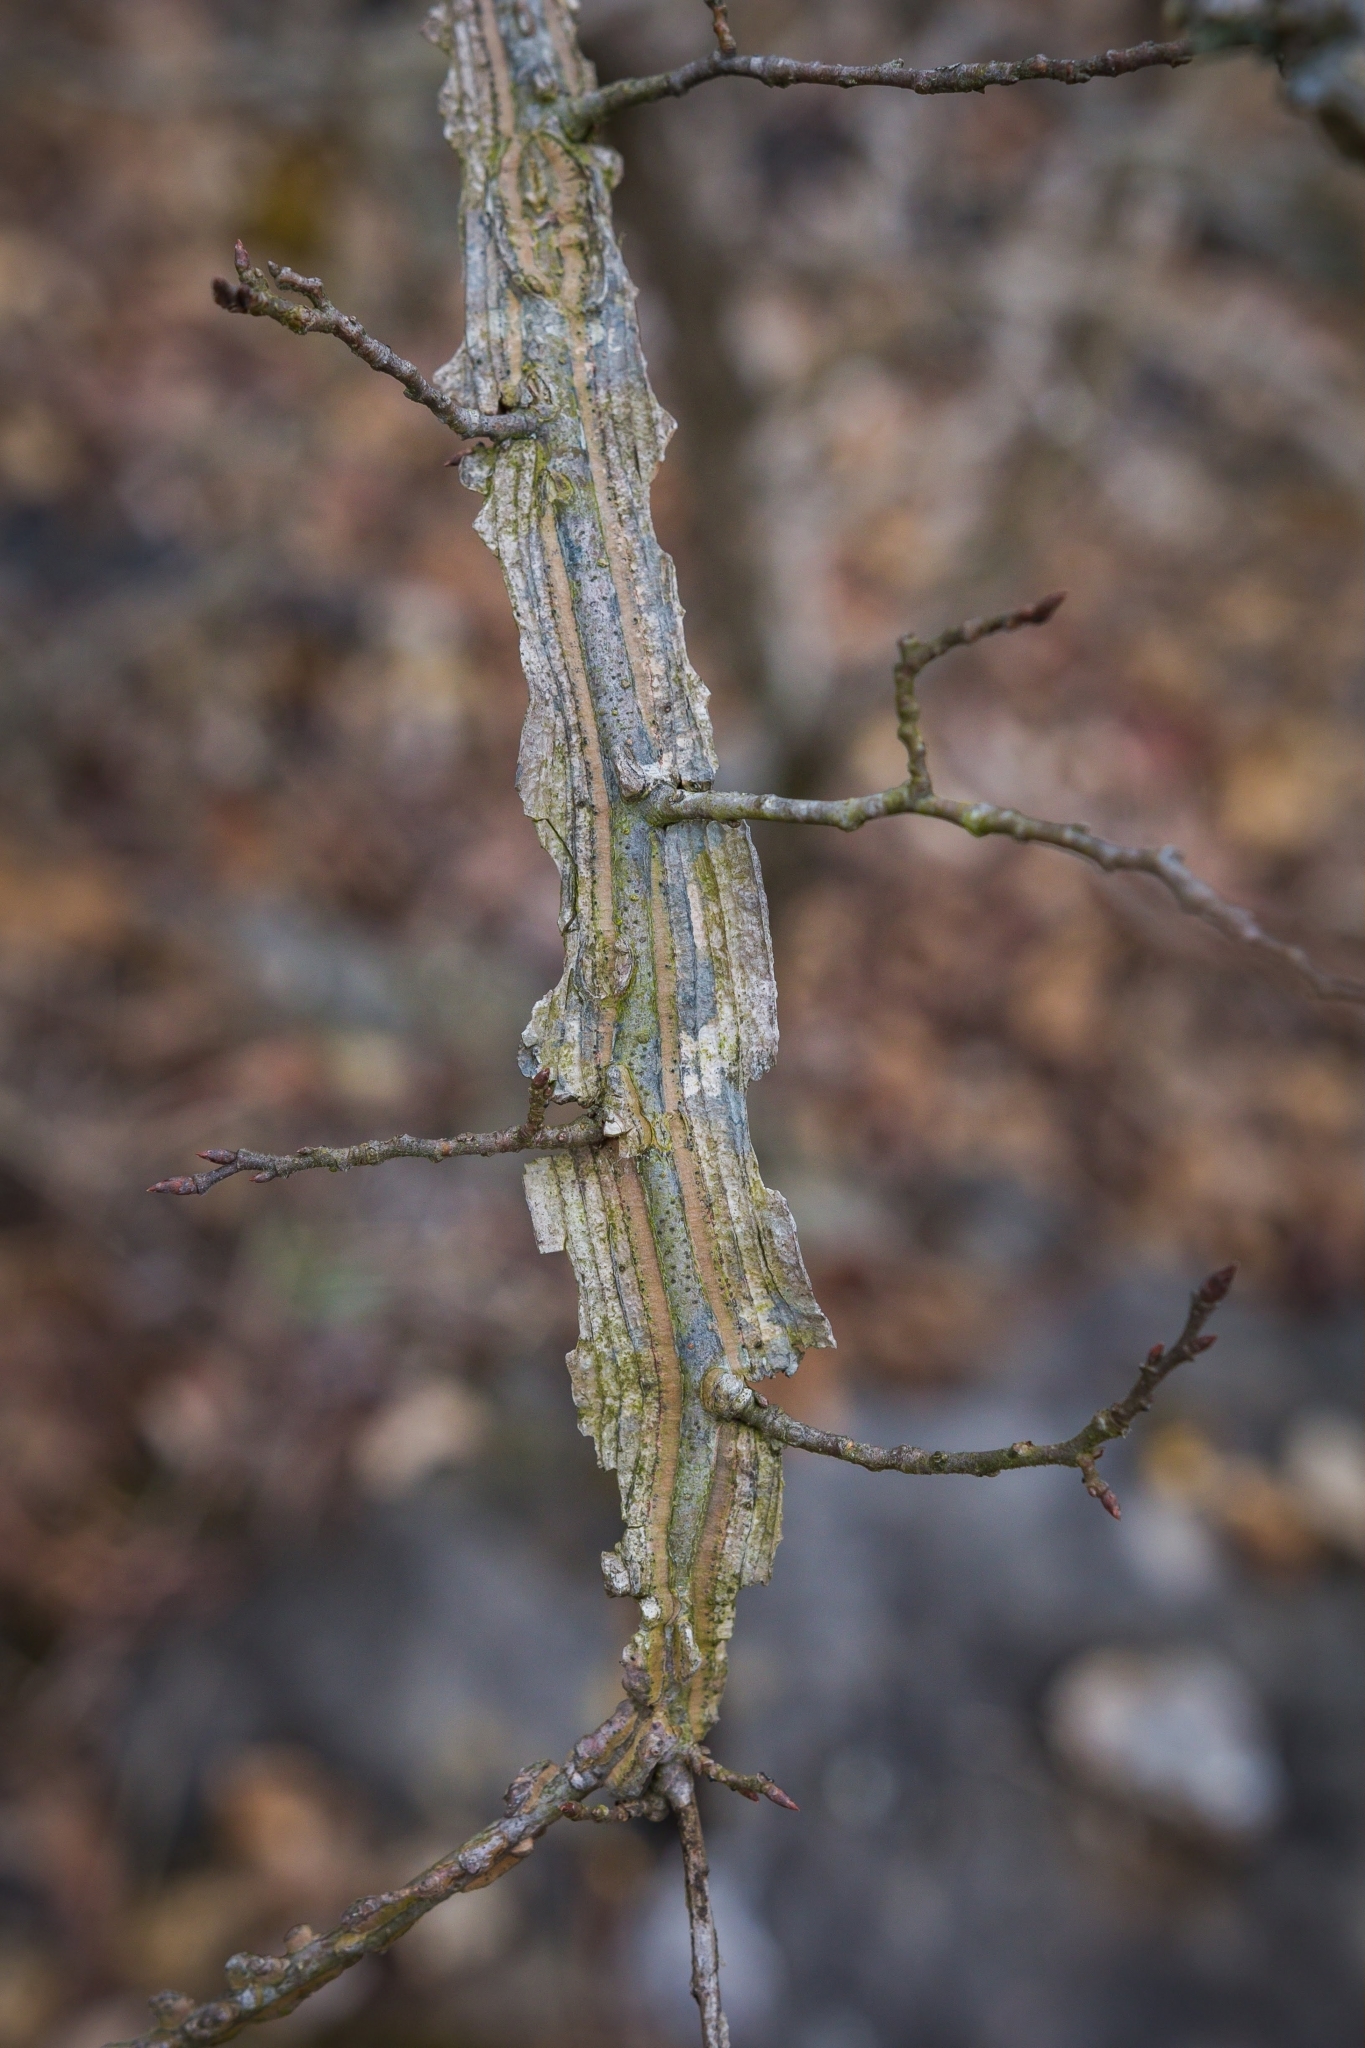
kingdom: Plantae
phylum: Tracheophyta
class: Magnoliopsida
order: Rosales
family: Ulmaceae
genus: Ulmus
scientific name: Ulmus alata
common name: Winged elm
